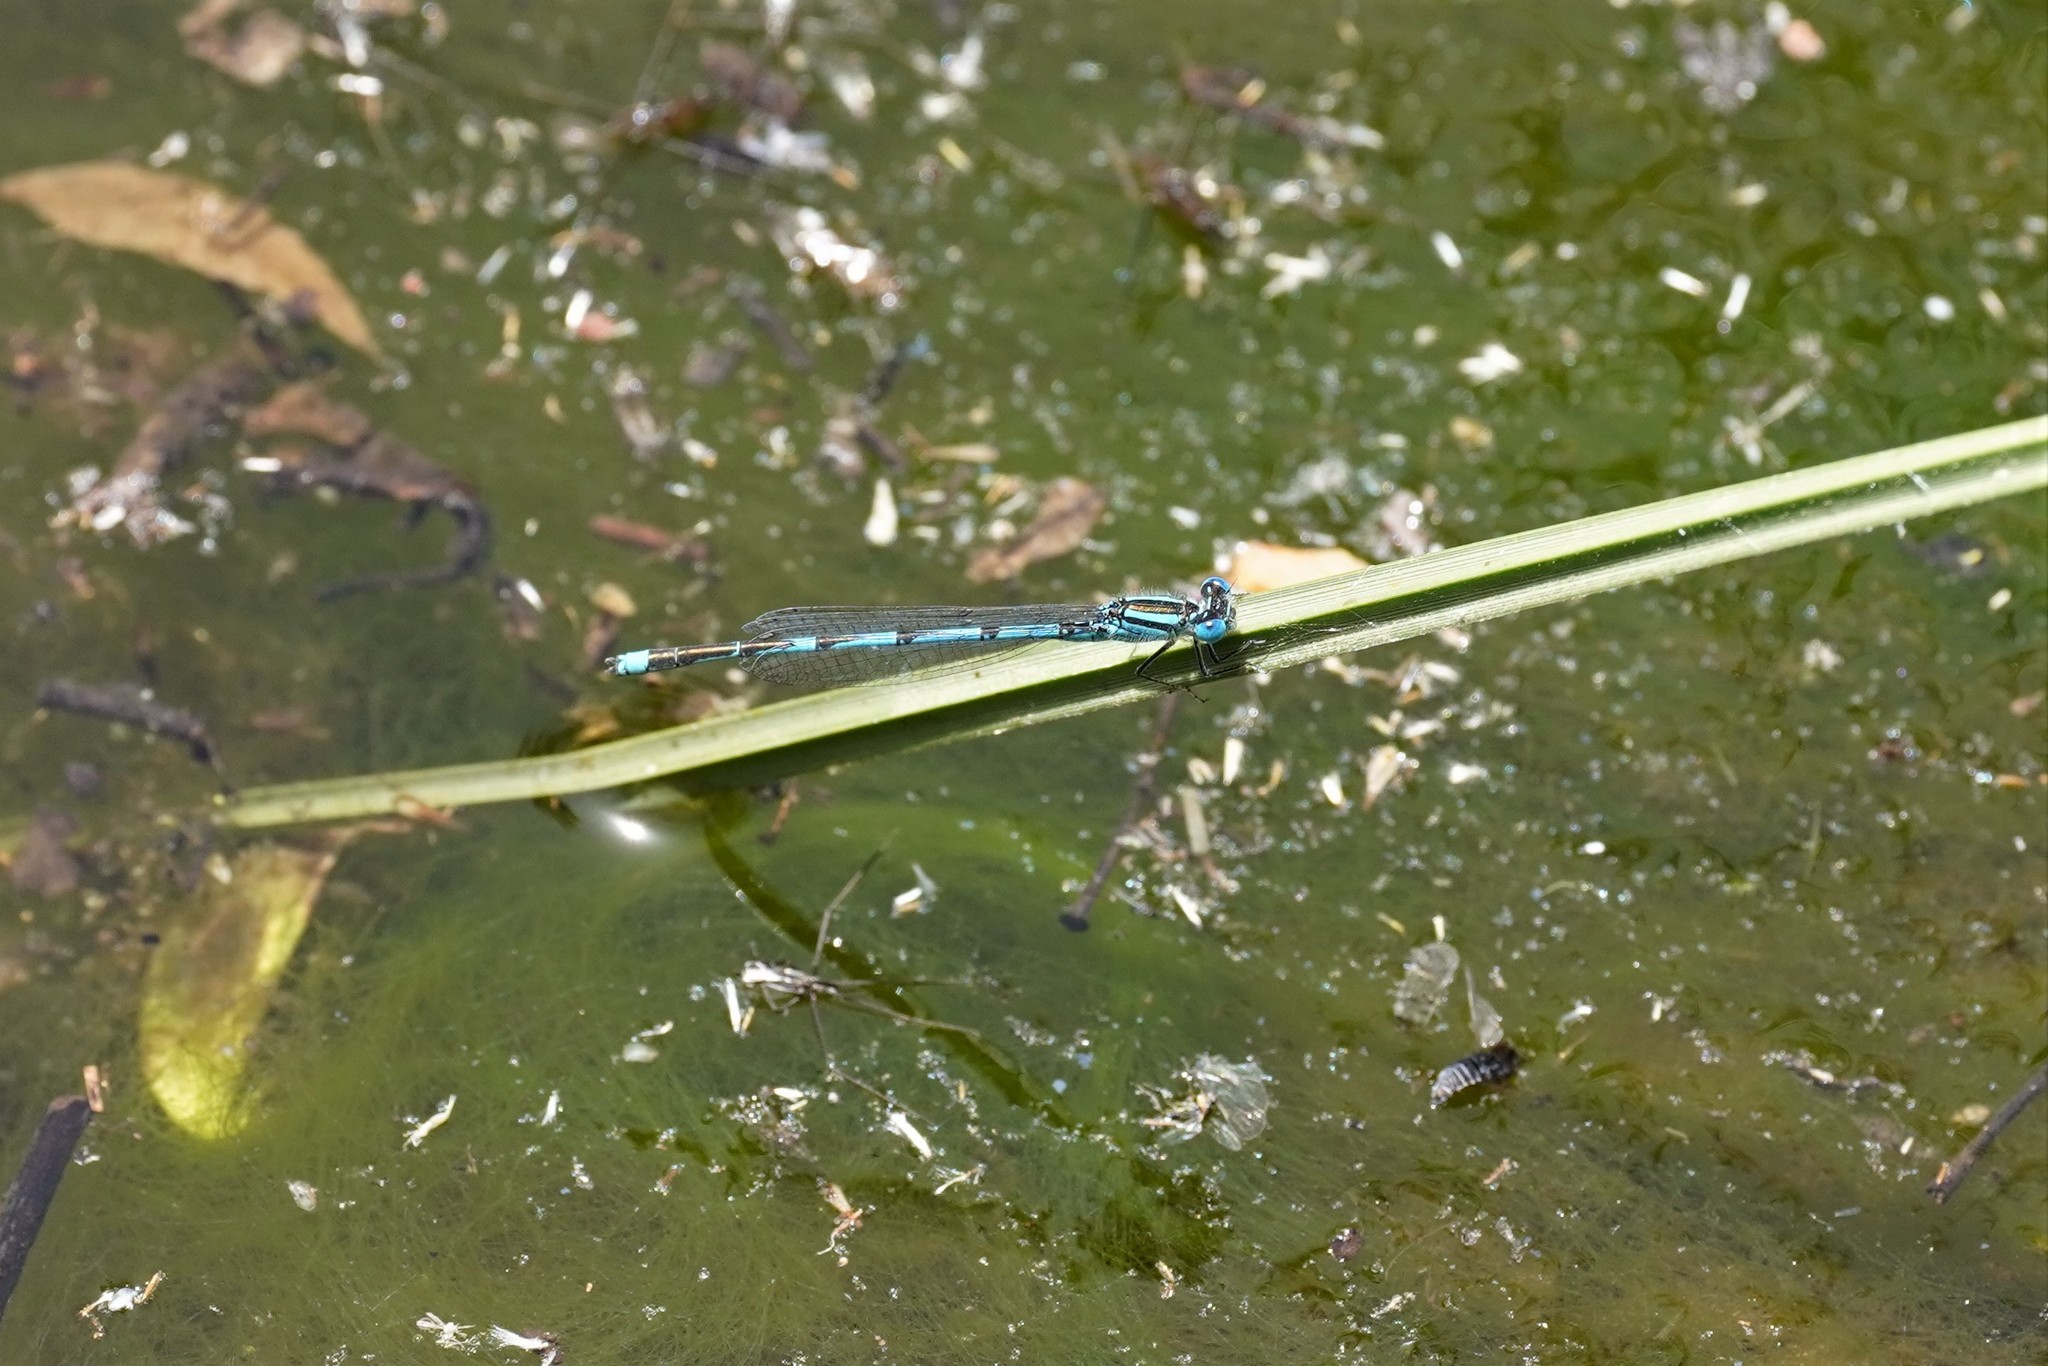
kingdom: Animalia
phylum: Arthropoda
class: Insecta
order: Odonata
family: Coenagrionidae
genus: Erythromma
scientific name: Erythromma lindenii
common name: Blue-eye
